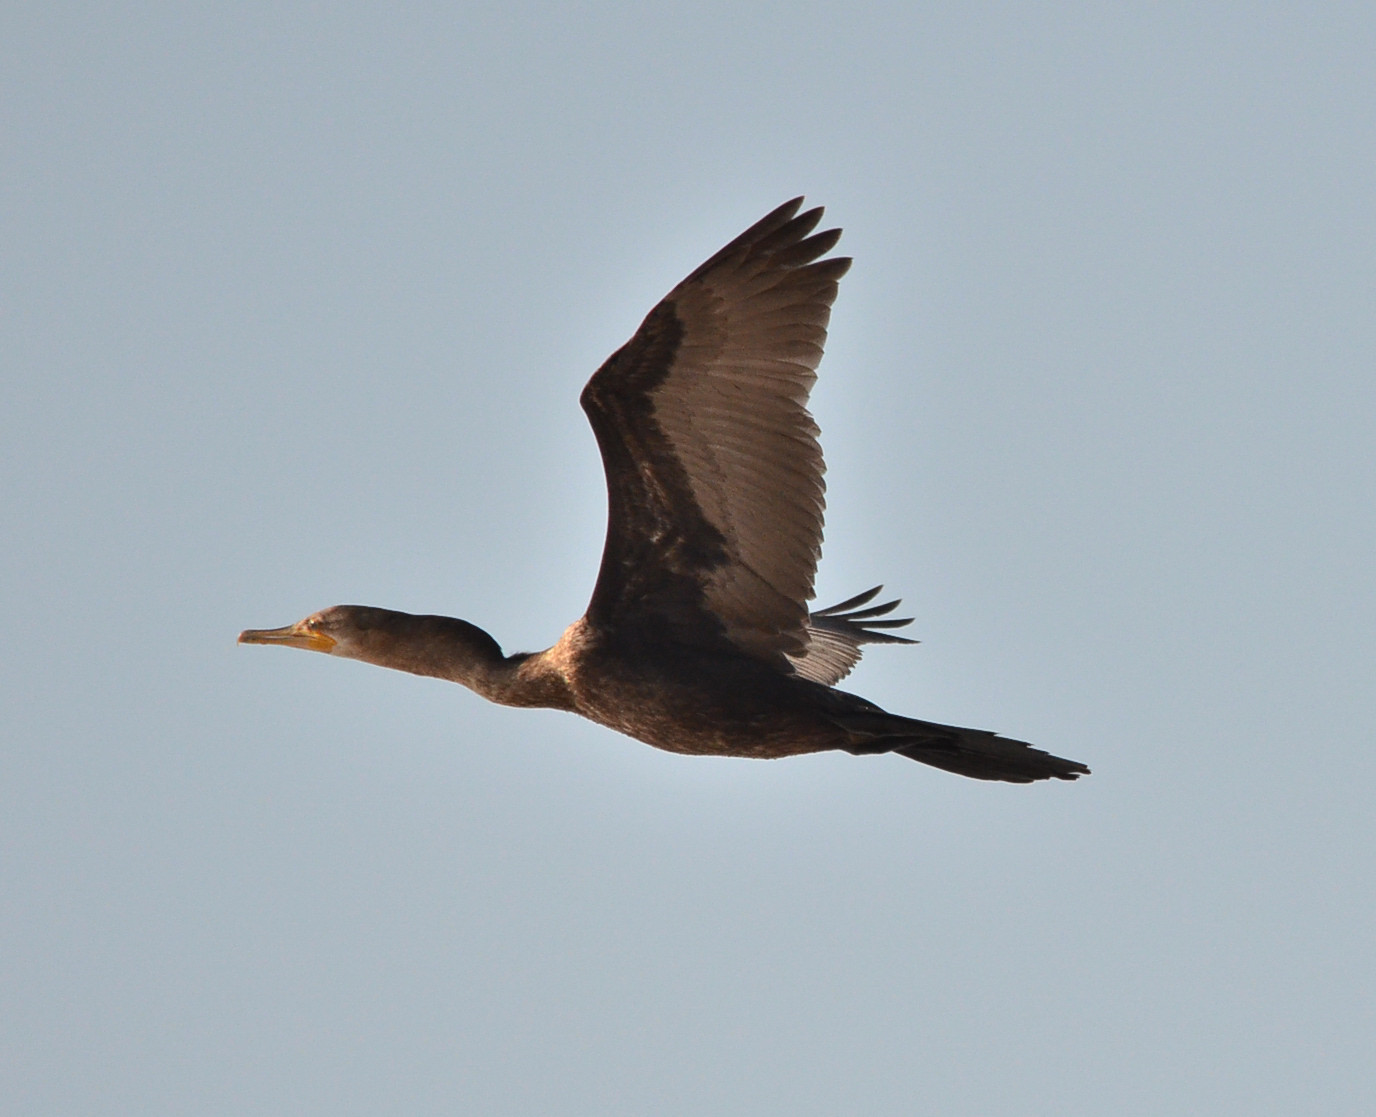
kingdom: Animalia
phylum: Chordata
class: Aves
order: Suliformes
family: Phalacrocoracidae
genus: Phalacrocorax
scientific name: Phalacrocorax brasilianus
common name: Neotropic cormorant
